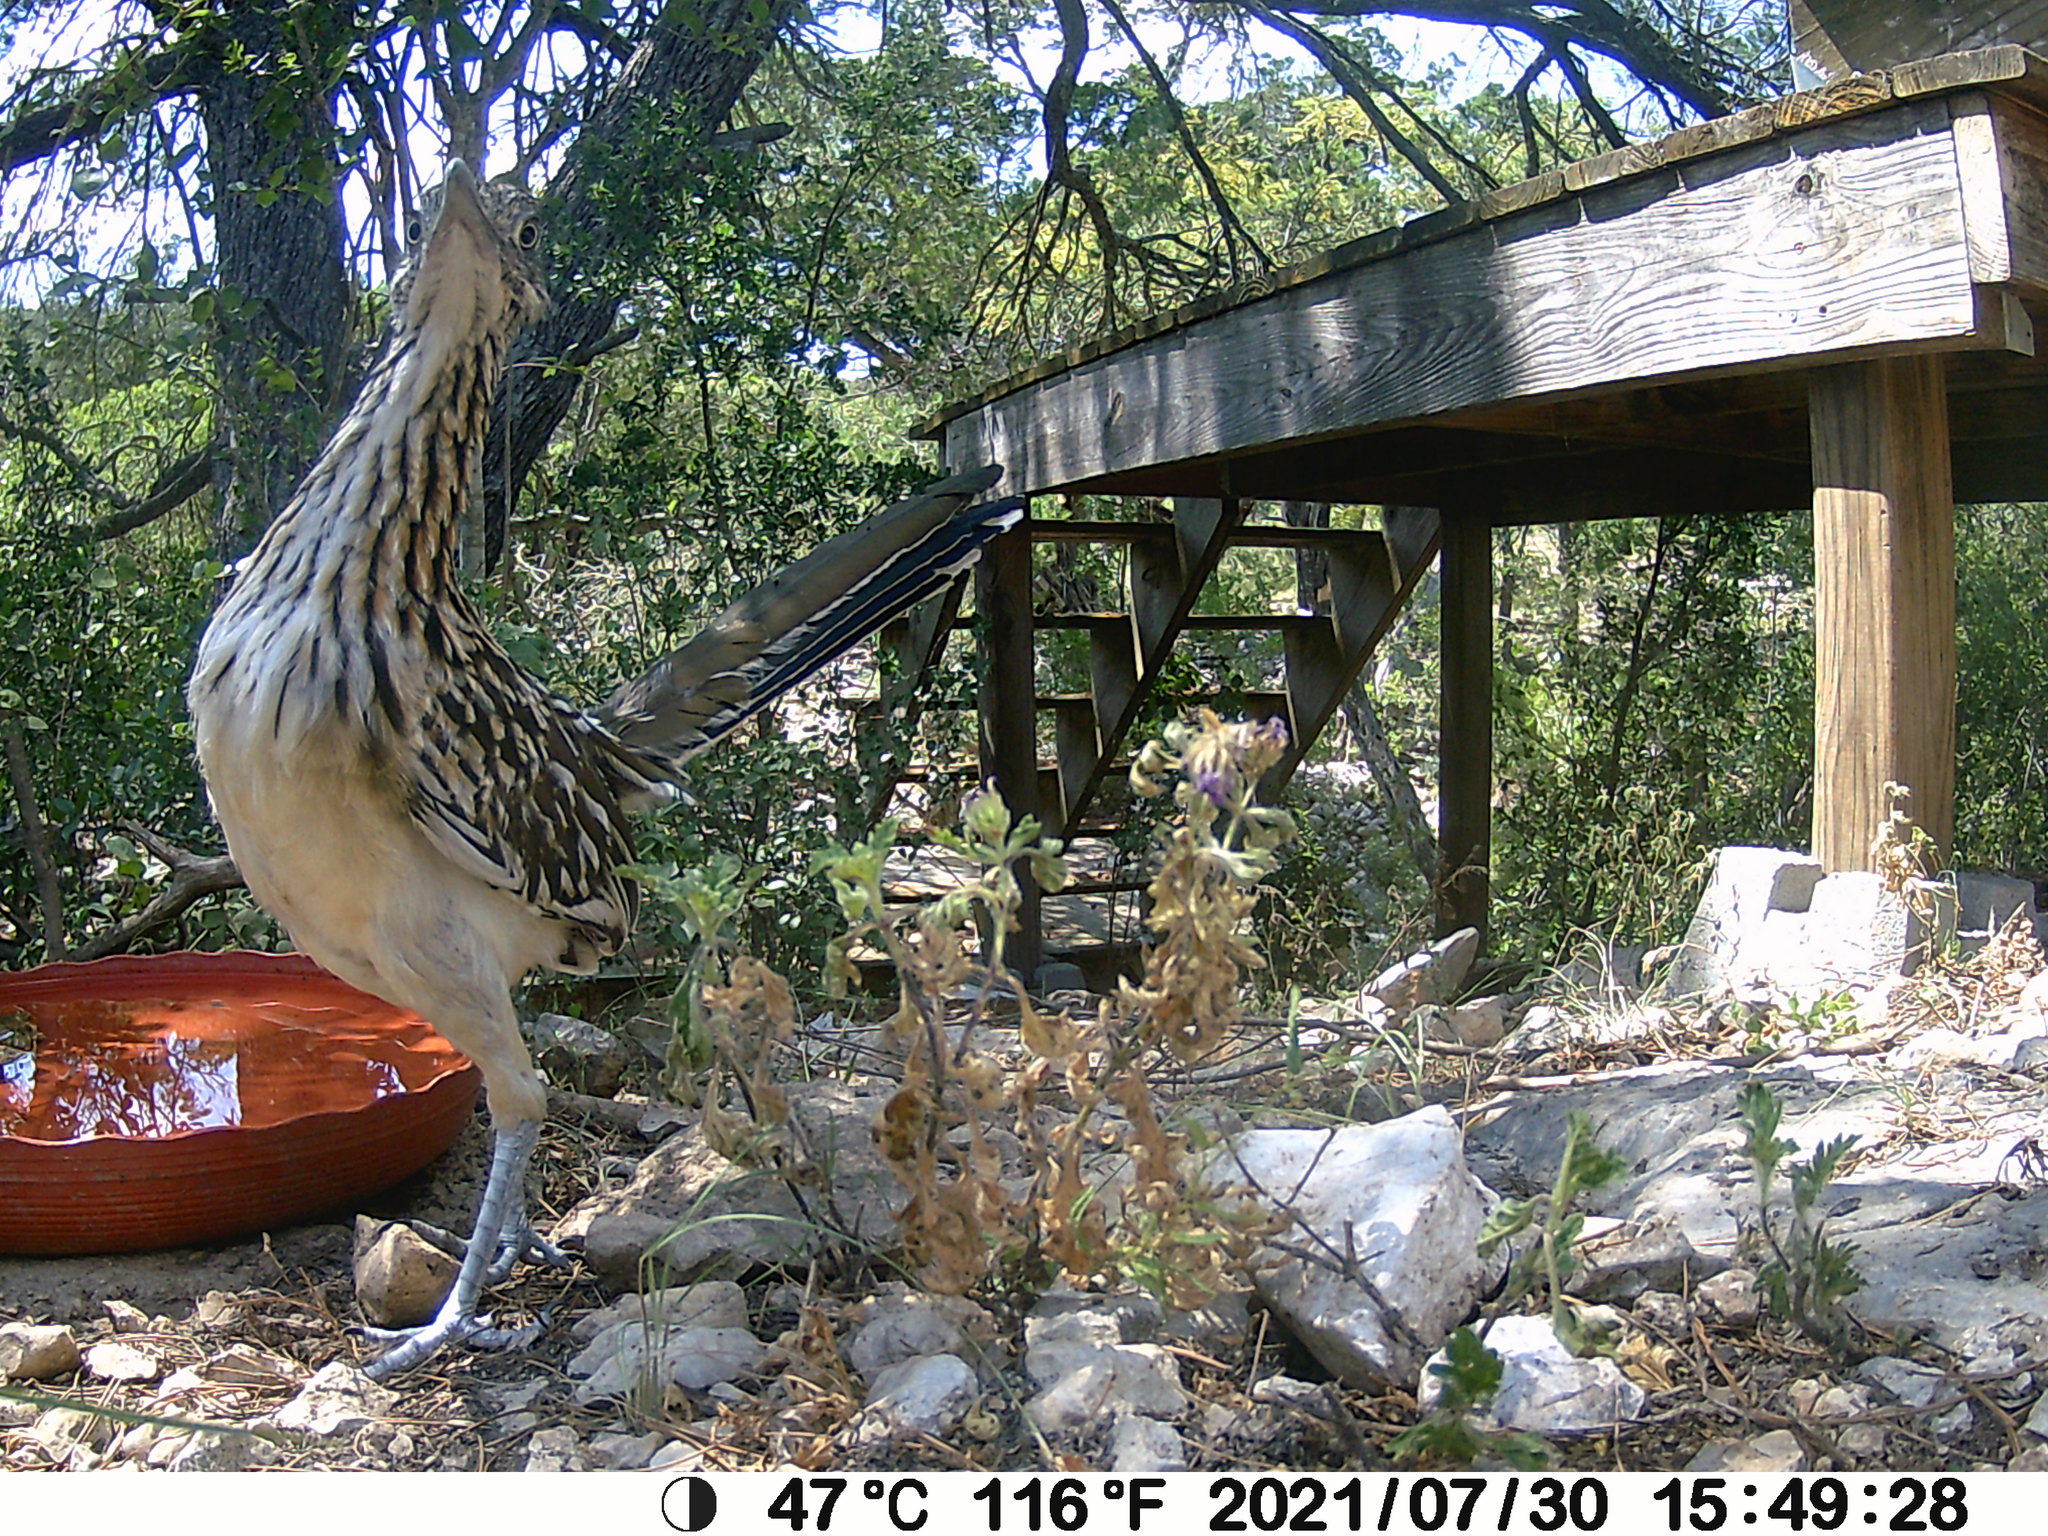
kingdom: Animalia
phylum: Chordata
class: Aves
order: Cuculiformes
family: Cuculidae
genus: Geococcyx
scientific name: Geococcyx californianus
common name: Greater roadrunner
